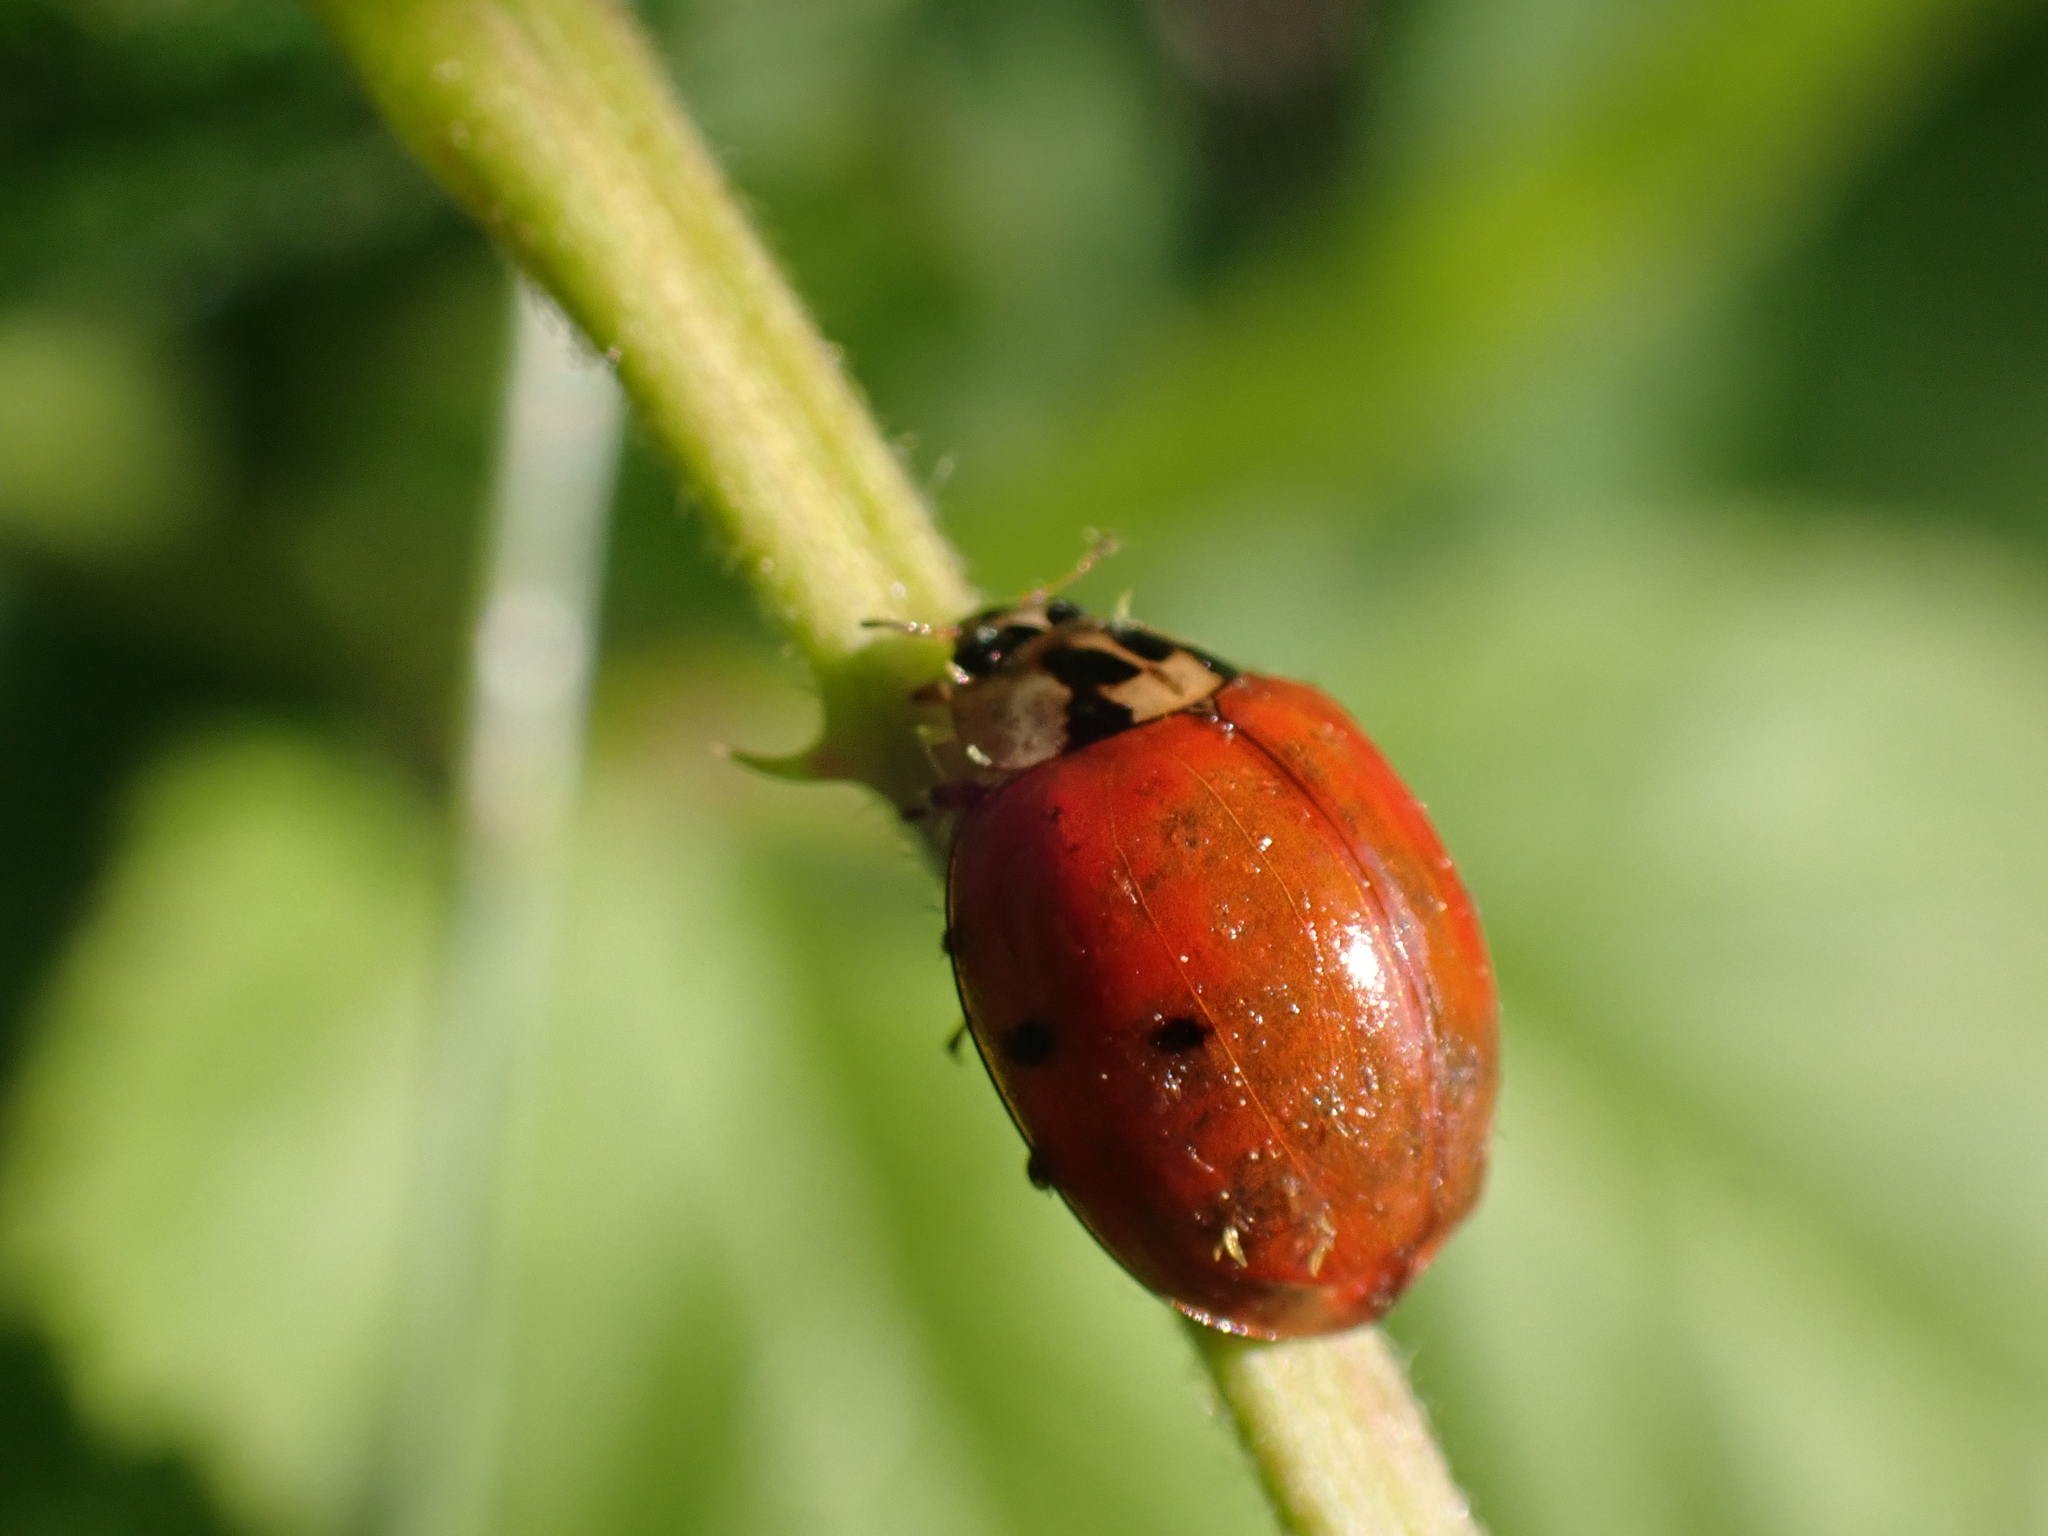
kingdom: Animalia
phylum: Arthropoda
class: Insecta
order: Coleoptera
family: Coccinellidae
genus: Harmonia
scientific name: Harmonia axyridis
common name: Harlequin ladybird
